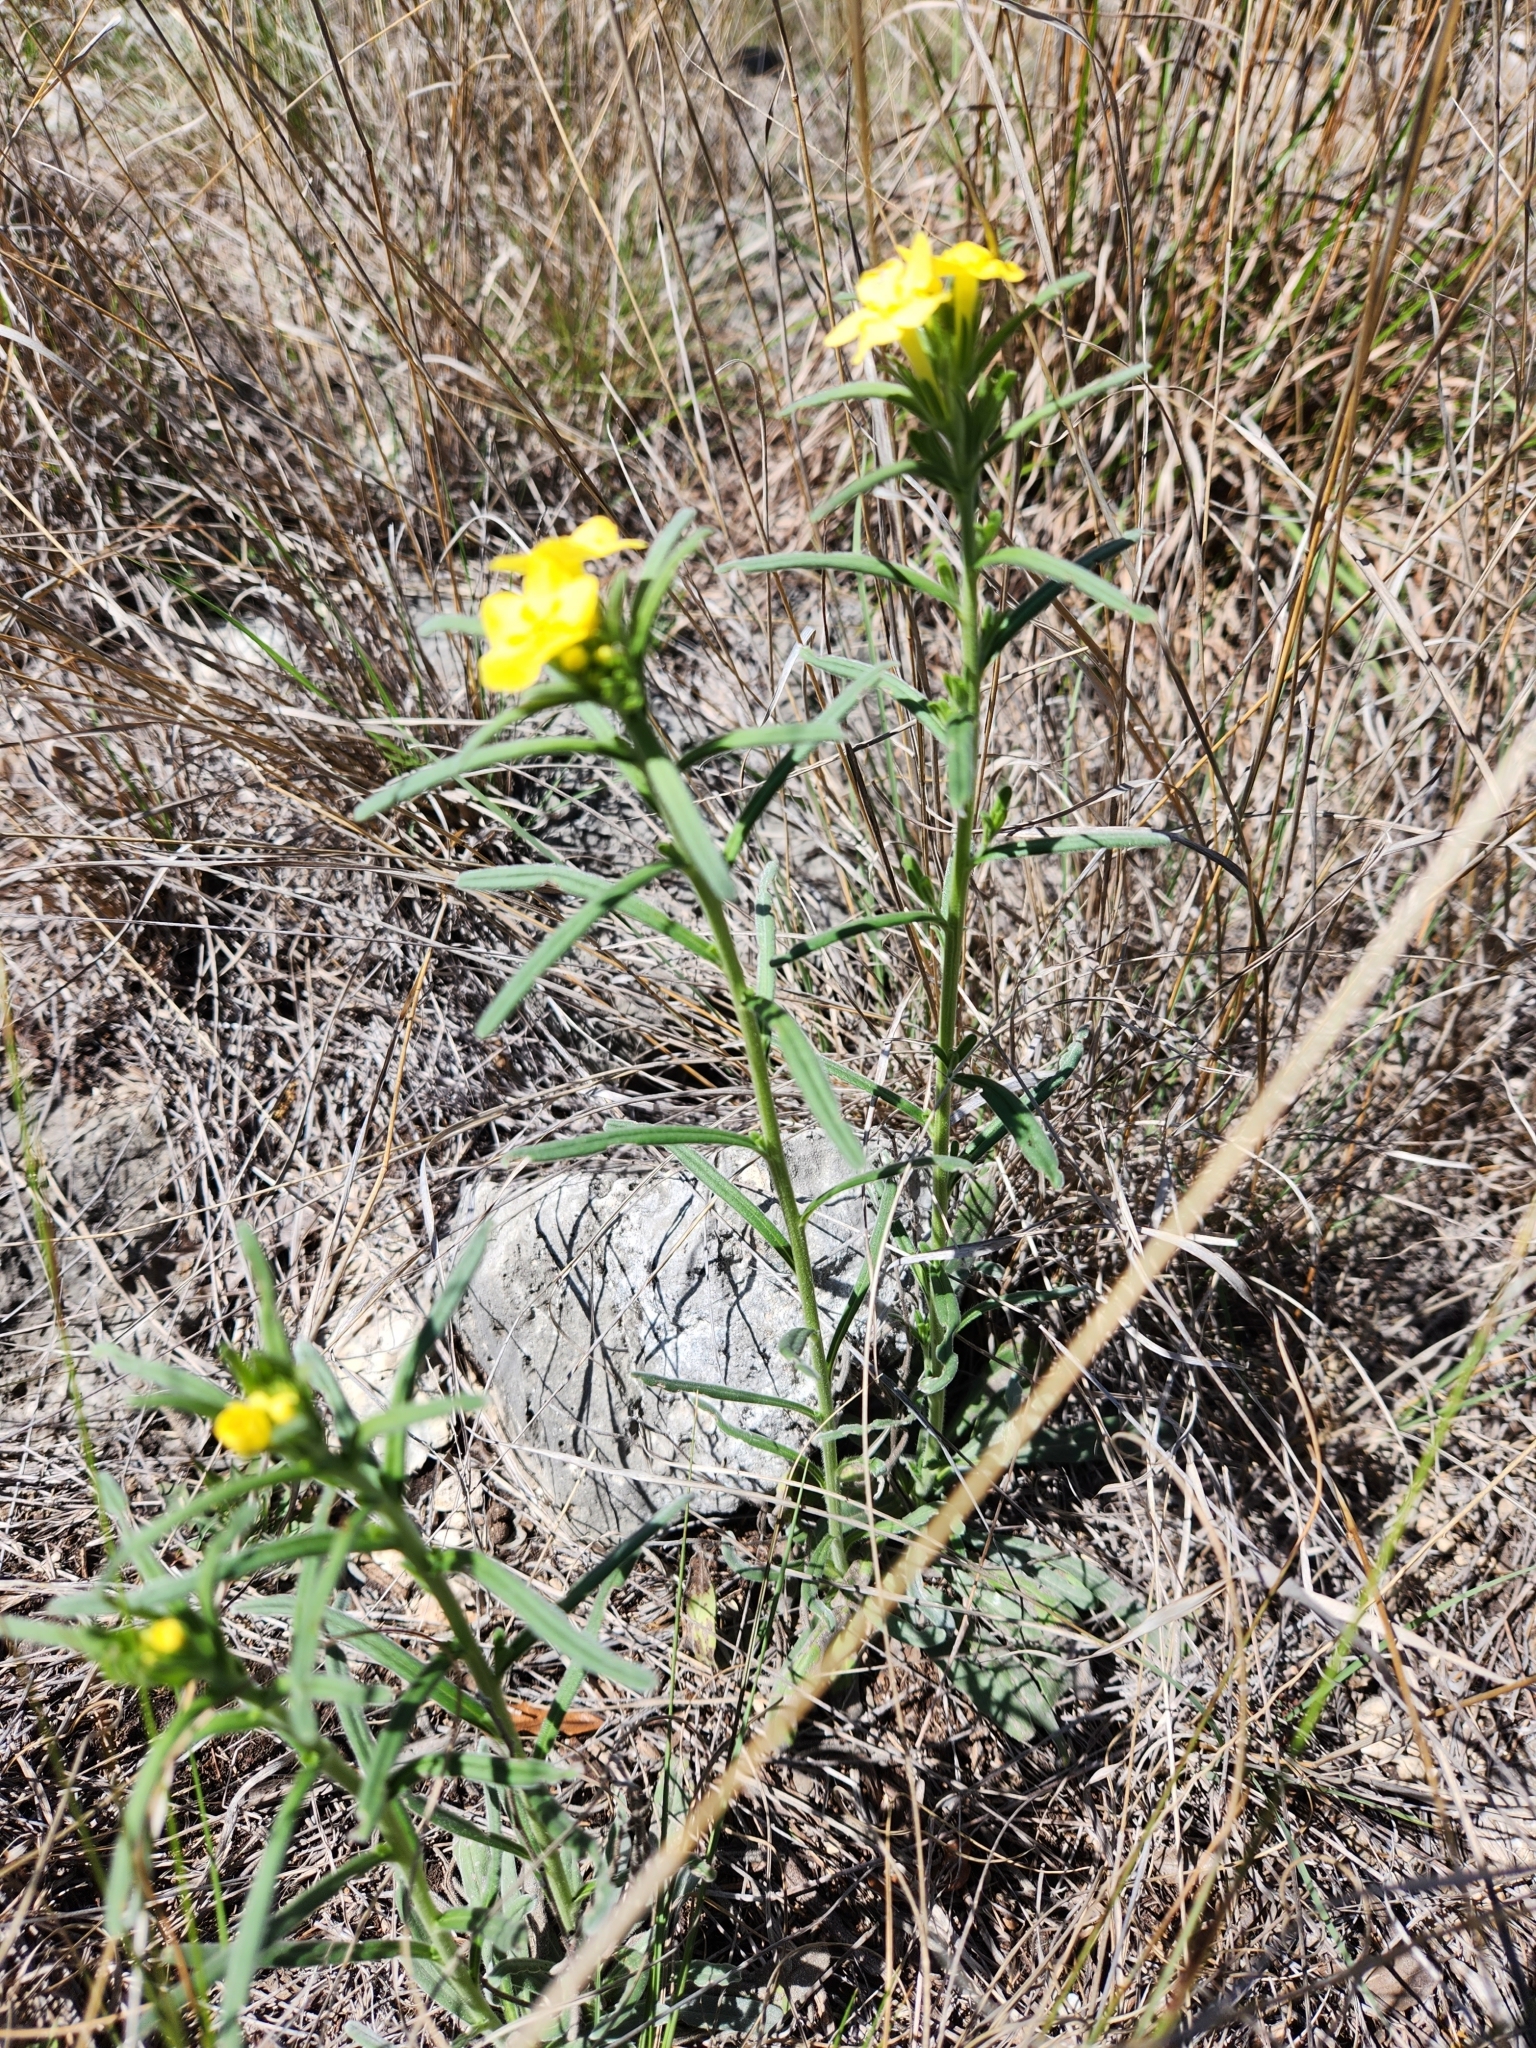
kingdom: Plantae
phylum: Tracheophyta
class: Magnoliopsida
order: Boraginales
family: Boraginaceae
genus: Lithospermum
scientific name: Lithospermum mirabile
